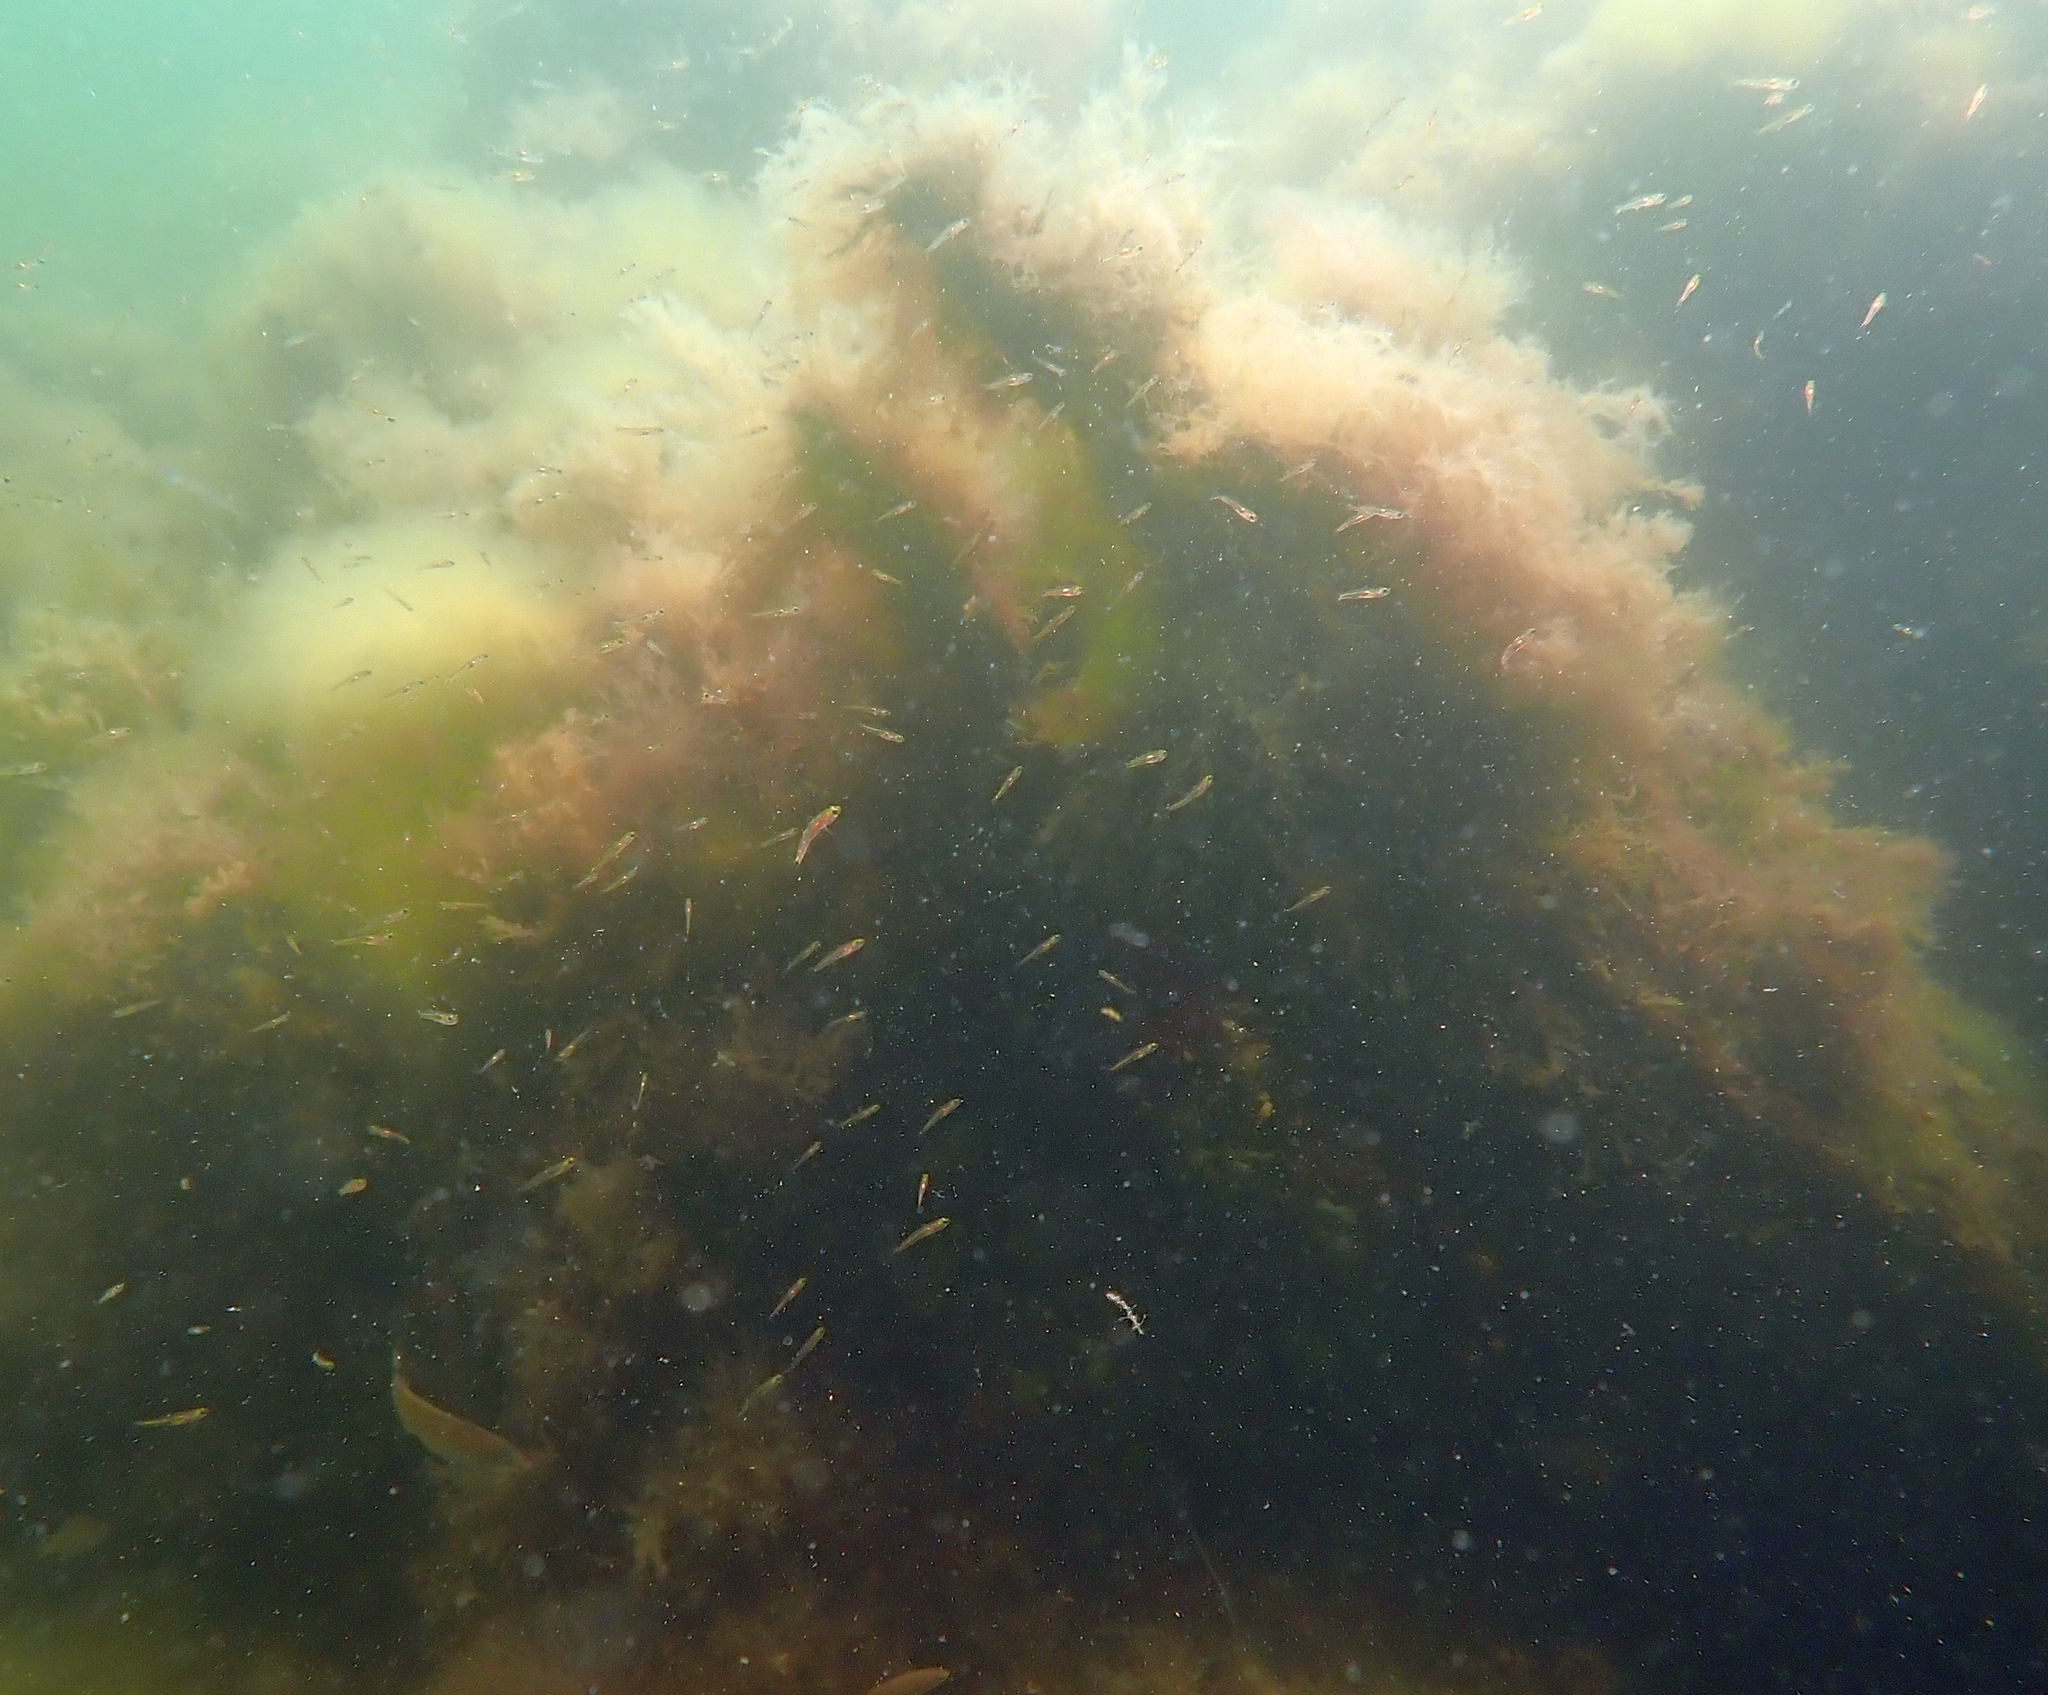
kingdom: Animalia
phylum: Chordata
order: Perciformes
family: Gobiidae
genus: Gobiusculus
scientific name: Gobiusculus flavescens
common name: Two-spotted goby
